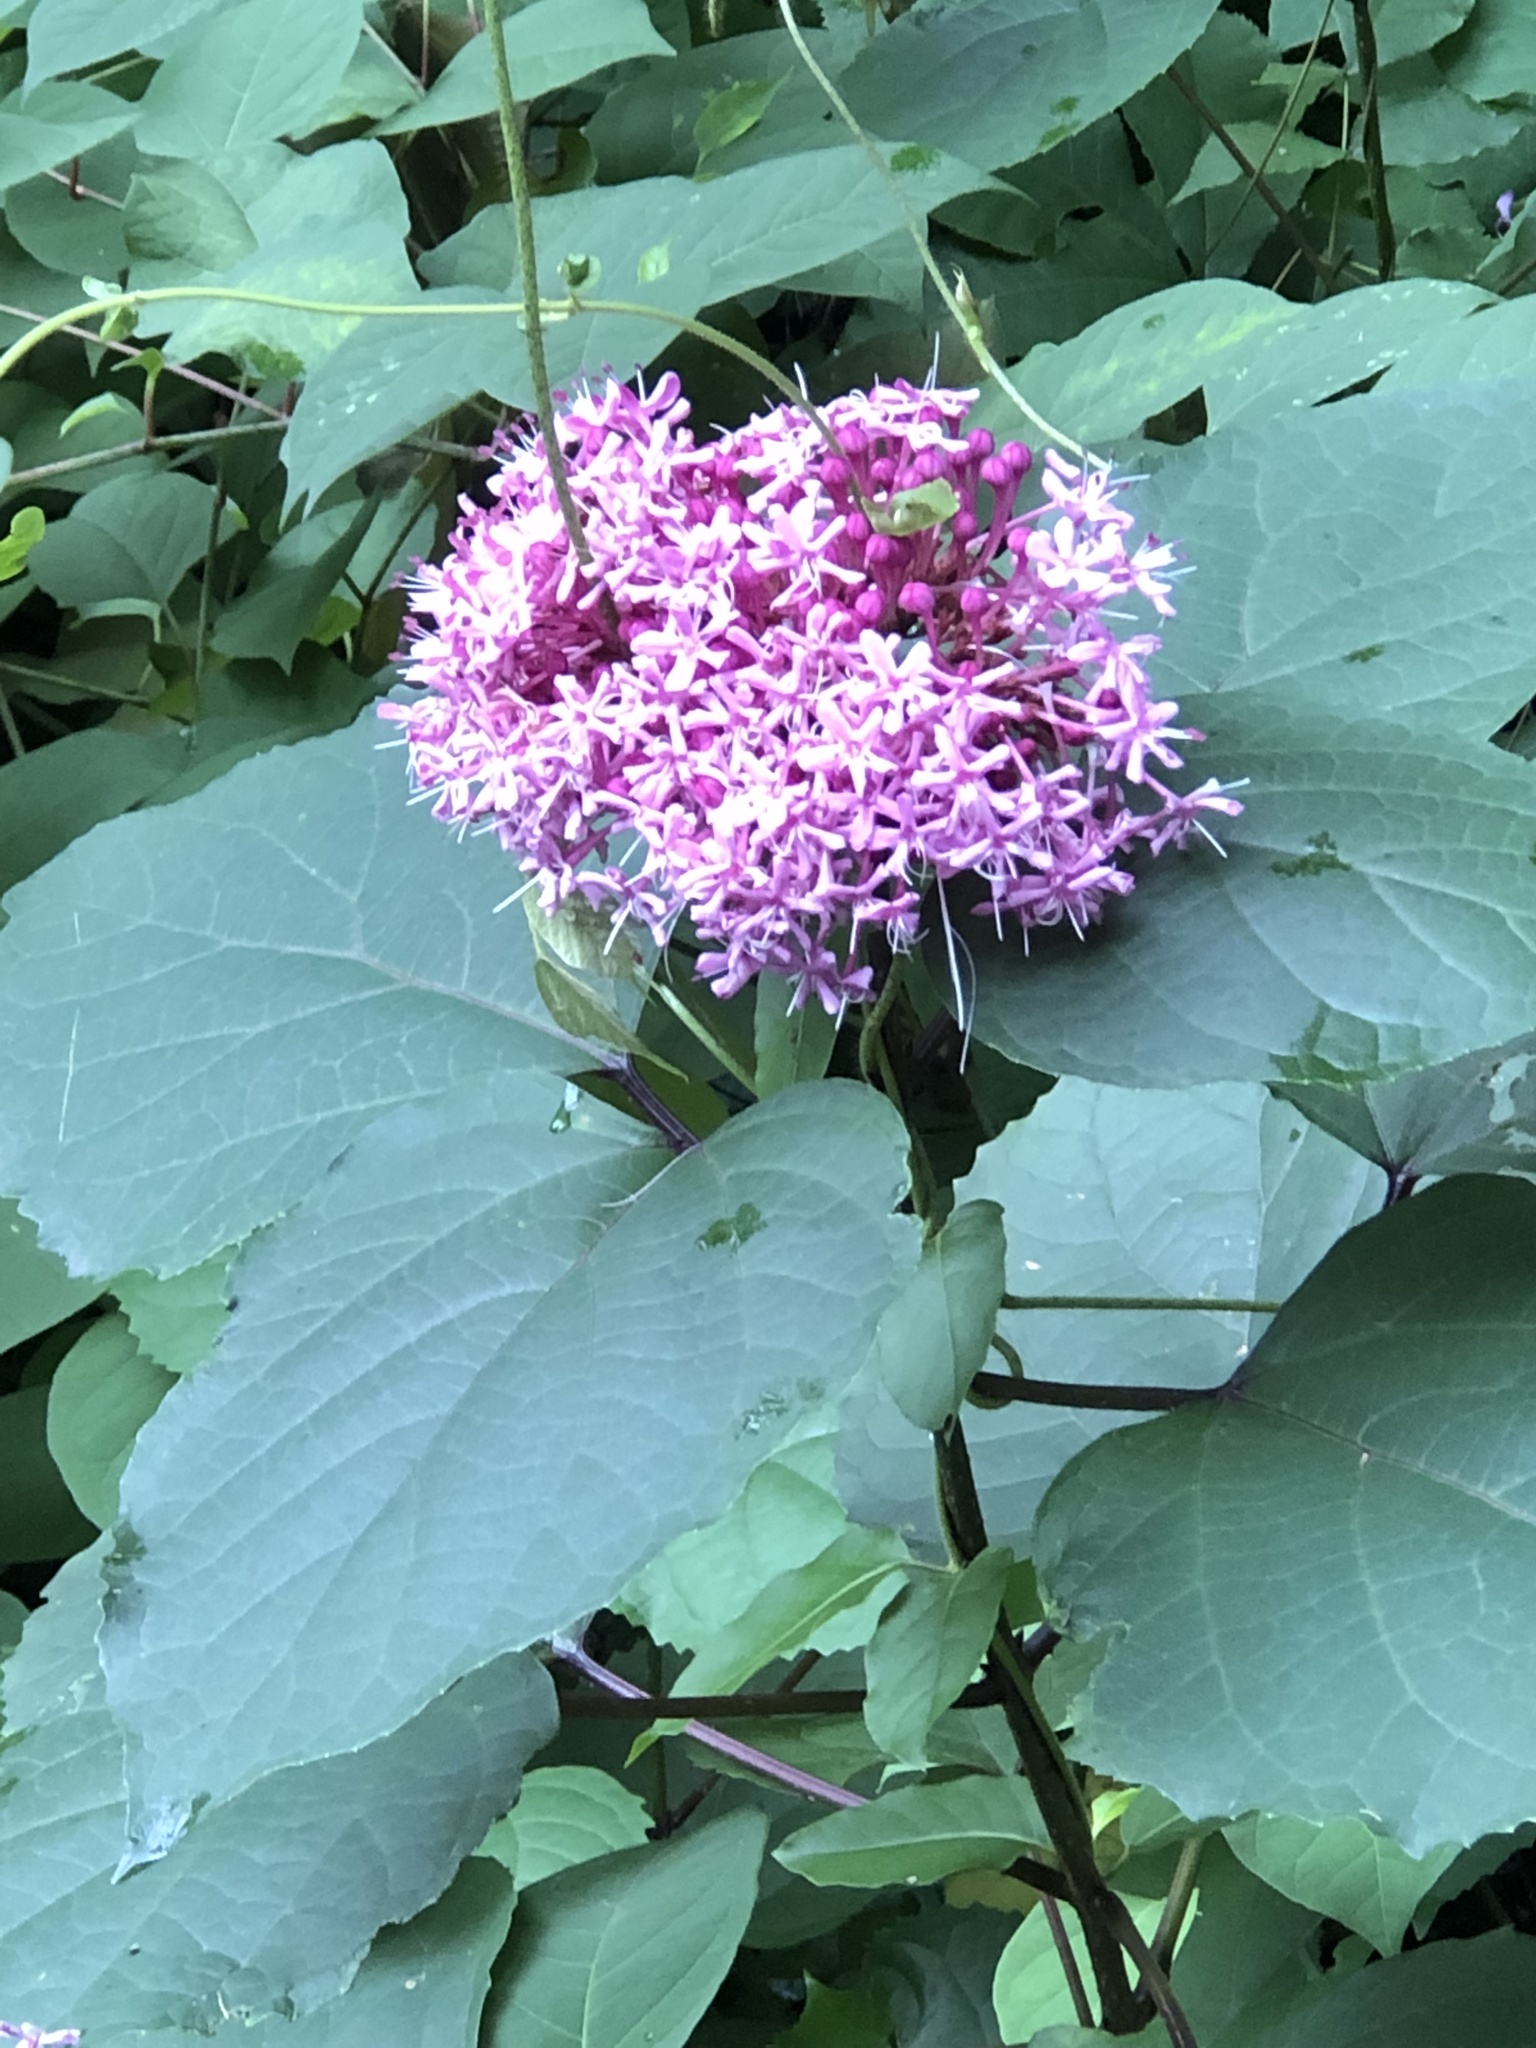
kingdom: Plantae
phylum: Tracheophyta
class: Magnoliopsida
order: Lamiales
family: Lamiaceae
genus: Clerodendrum
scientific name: Clerodendrum bungei
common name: Rose glorybower
